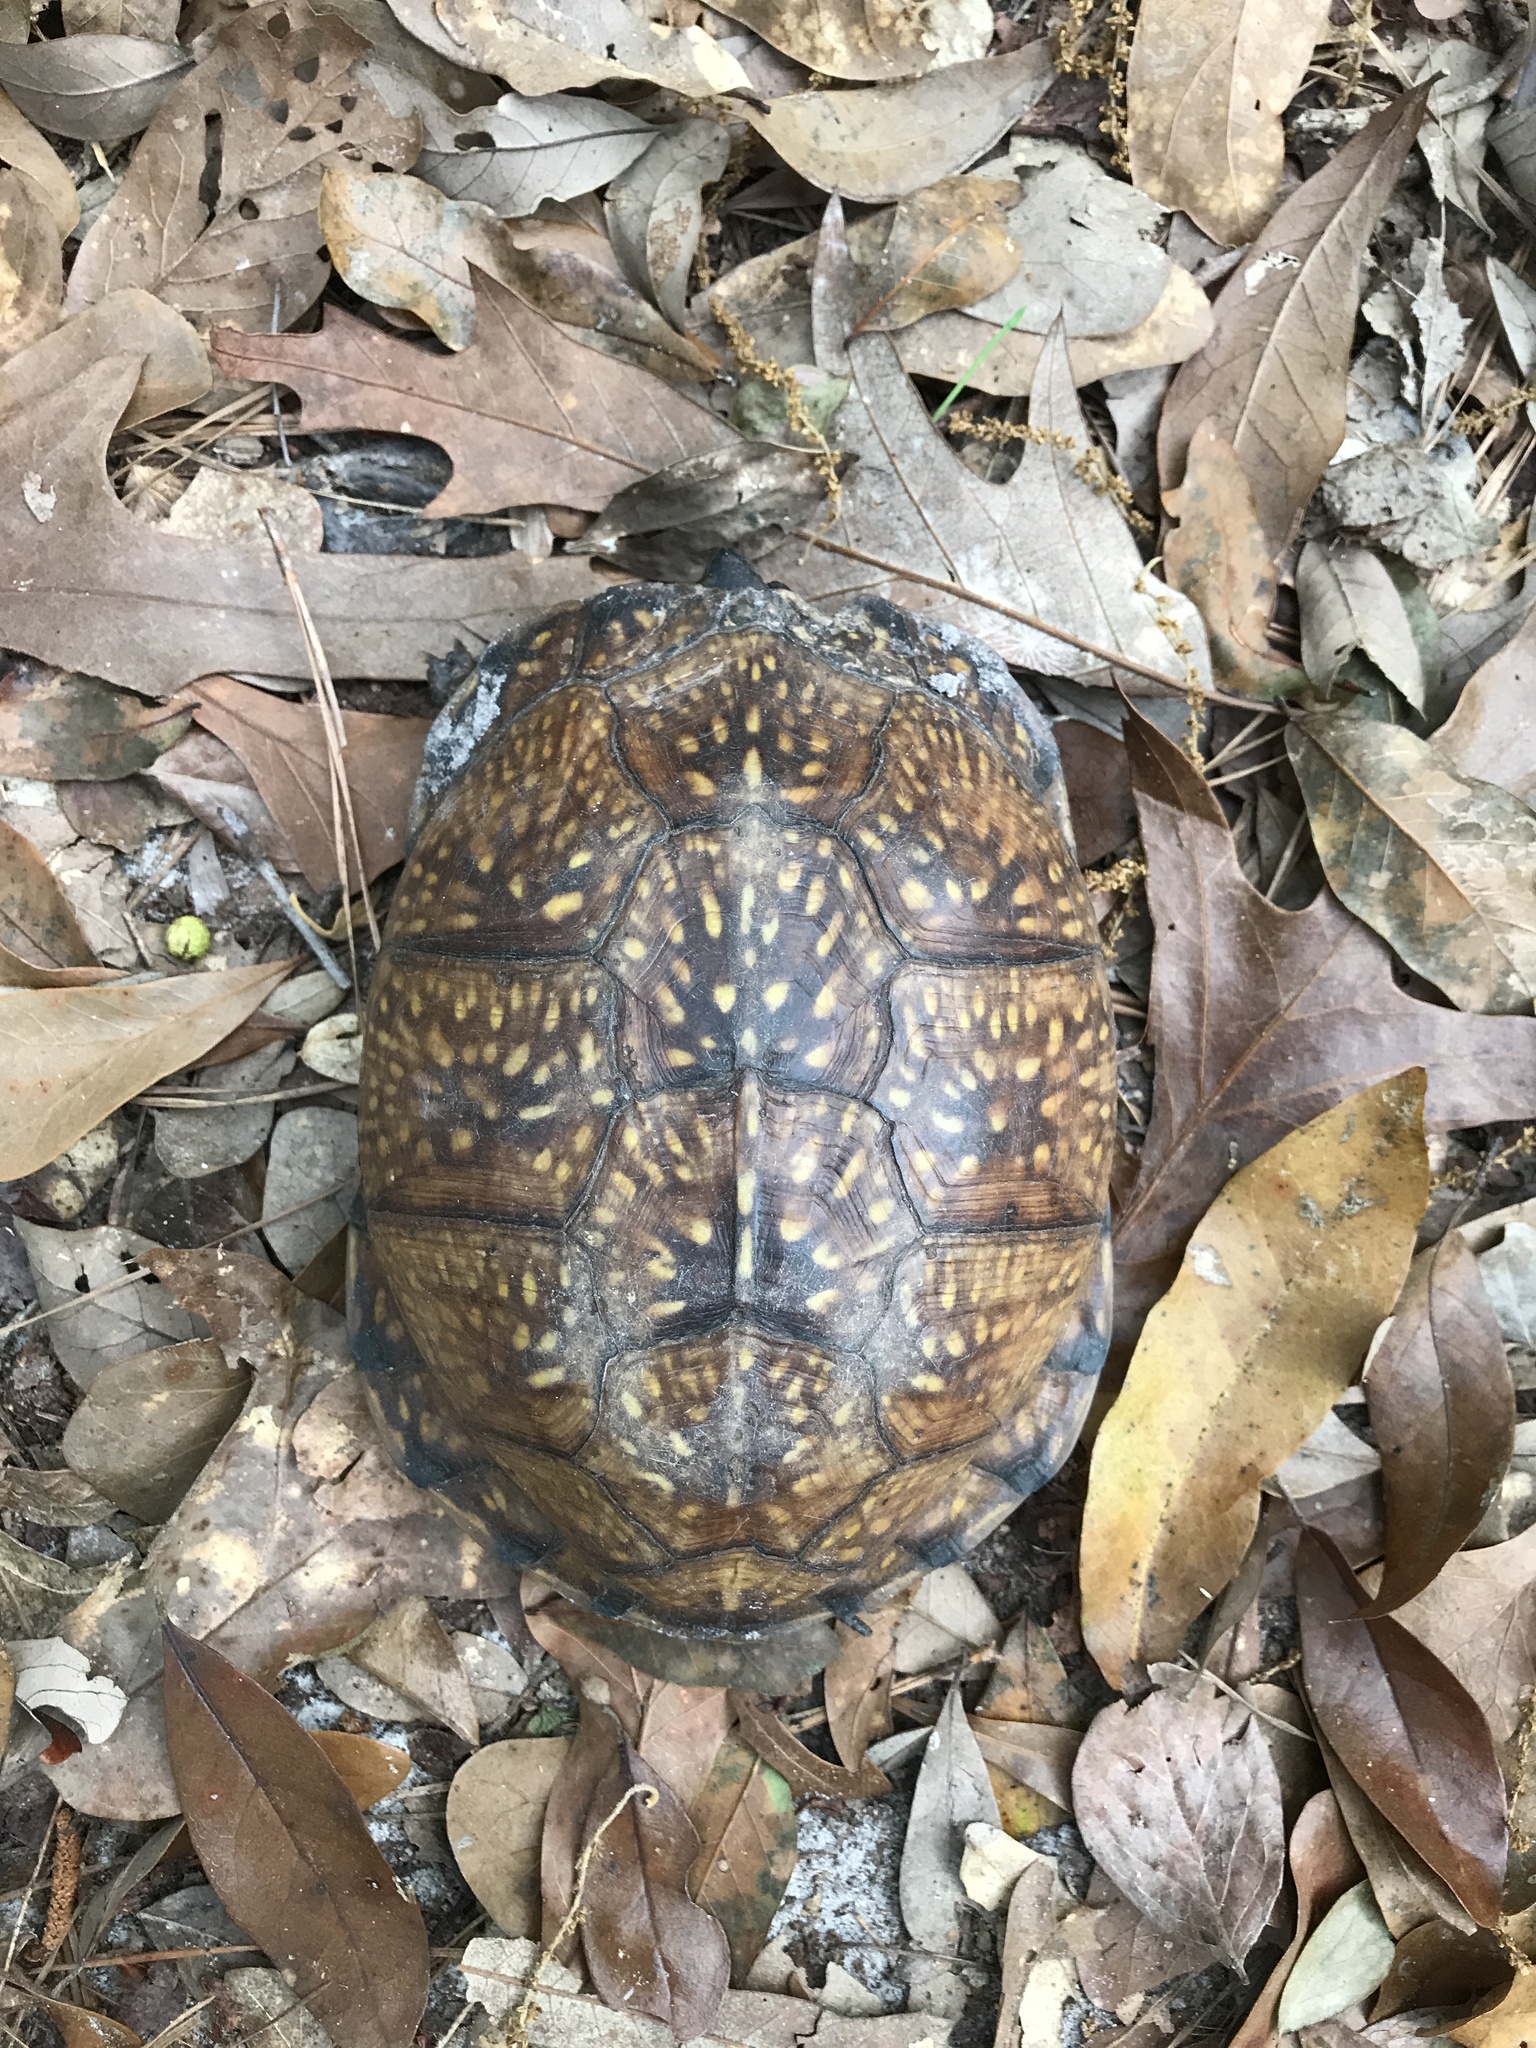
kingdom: Animalia
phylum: Chordata
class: Testudines
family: Emydidae
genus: Terrapene
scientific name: Terrapene carolina
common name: Common box turtle
